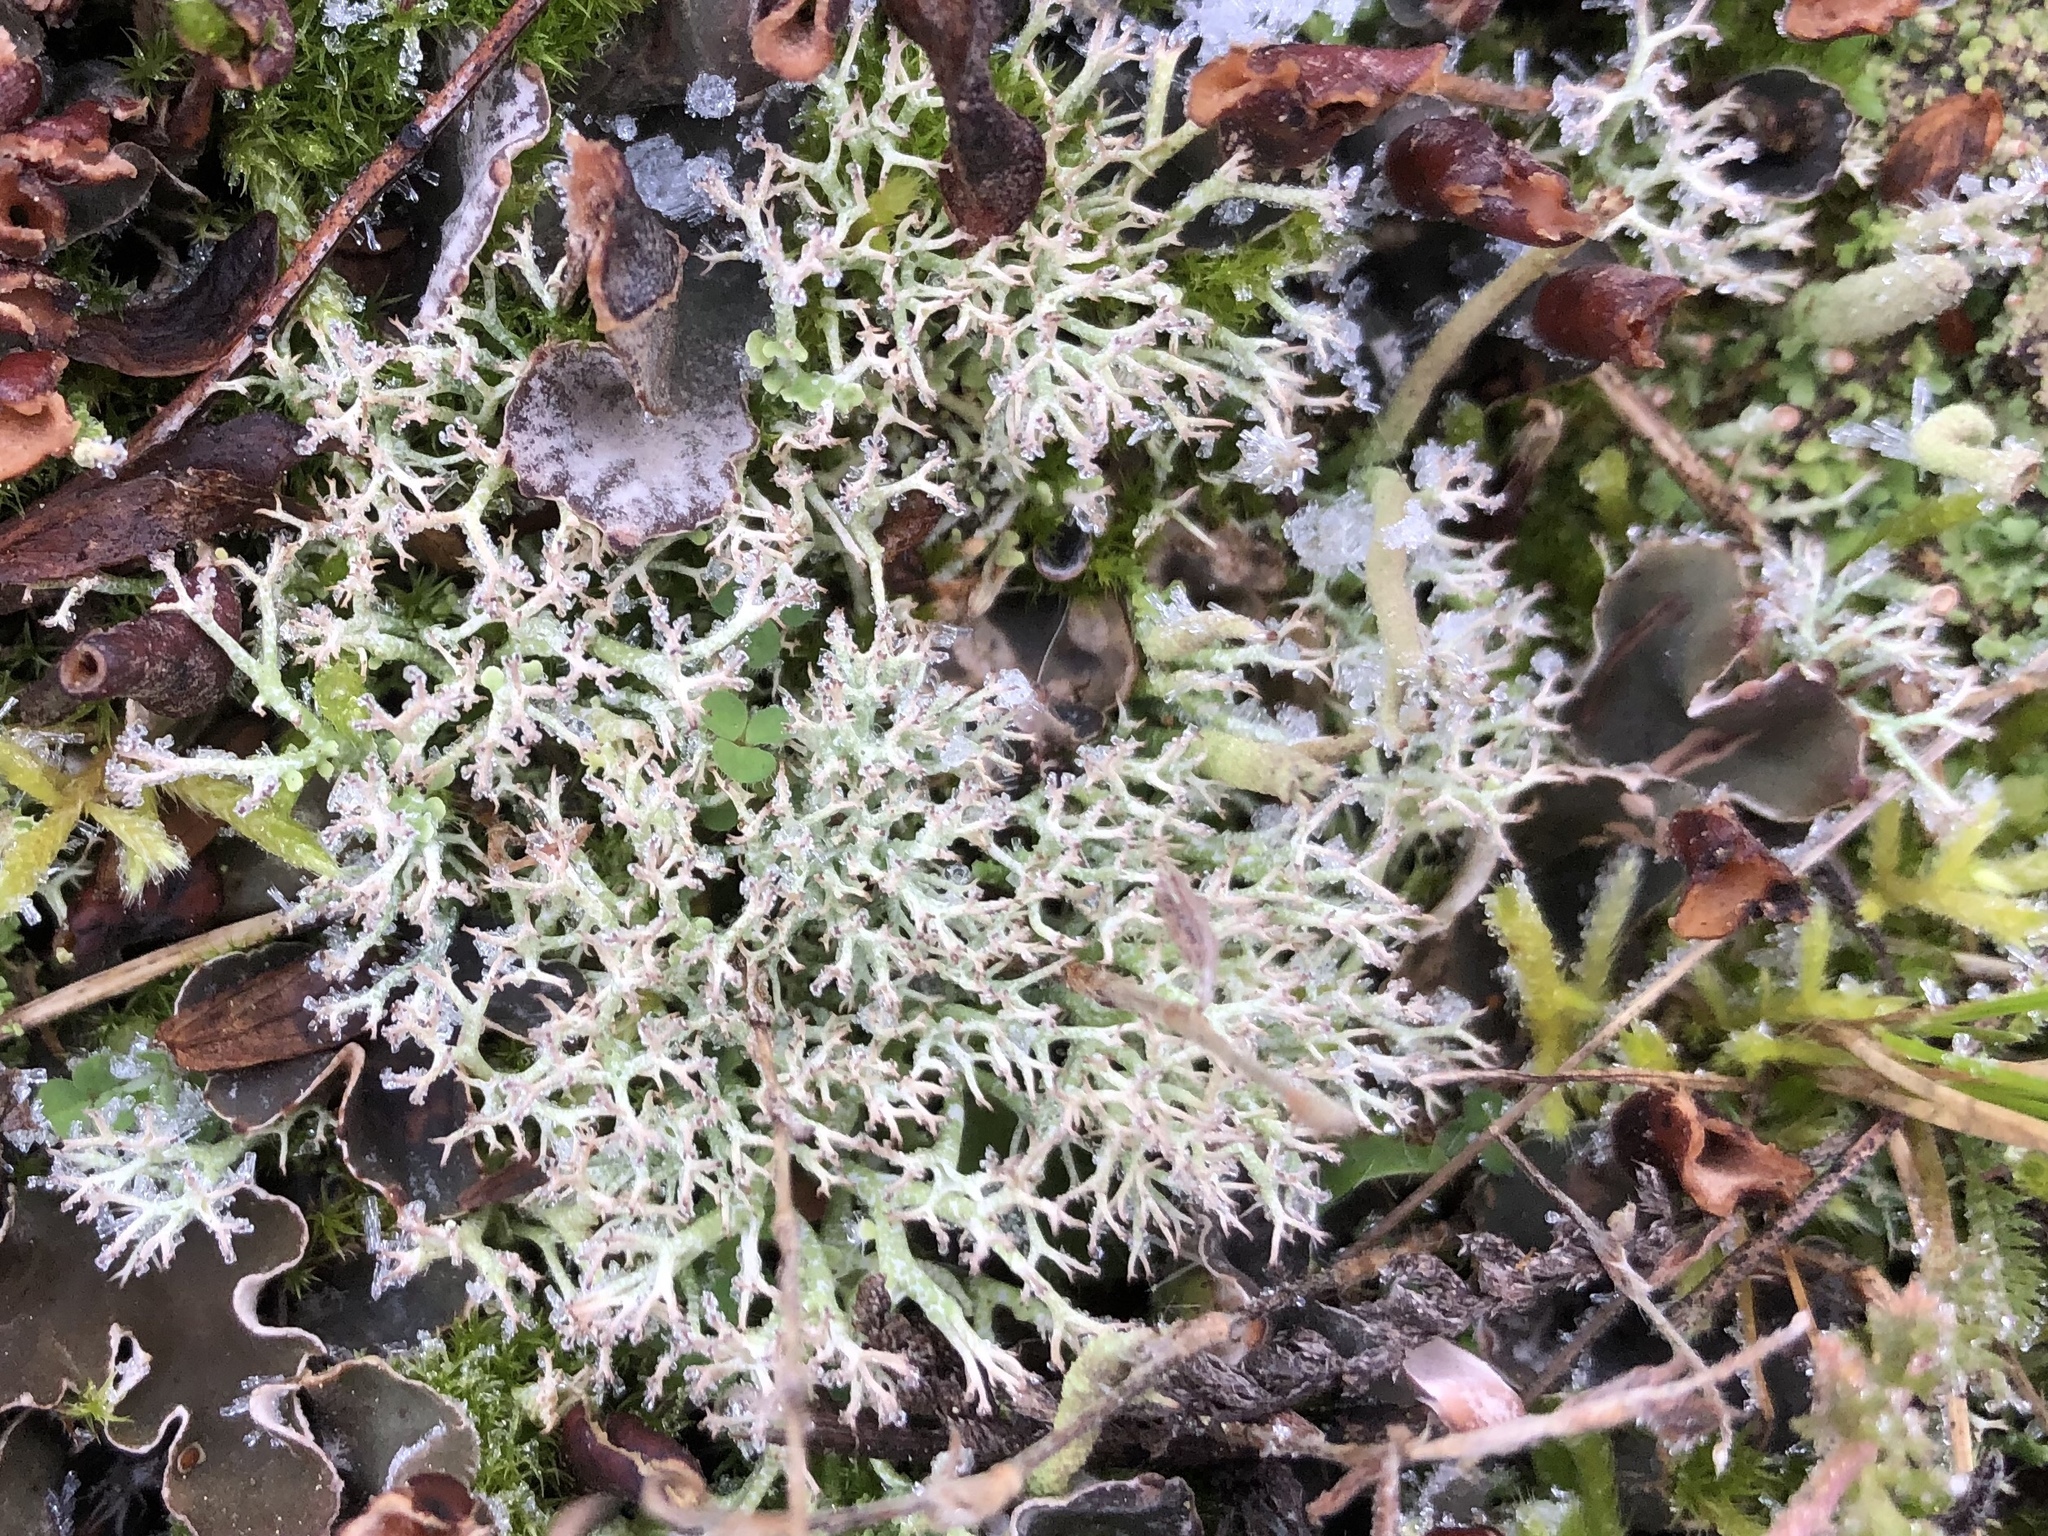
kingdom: Fungi
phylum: Ascomycota
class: Lecanoromycetes
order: Lecanorales
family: Cladoniaceae
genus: Cladonia
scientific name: Cladonia furcata
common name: Many-forked cladonia
